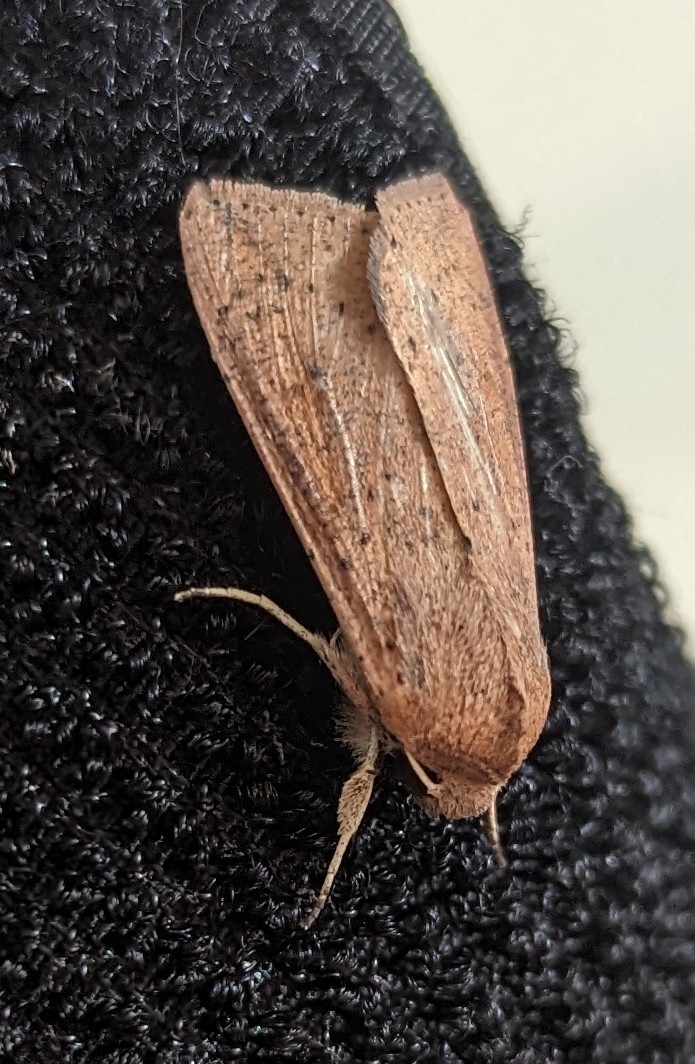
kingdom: Animalia
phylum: Arthropoda
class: Insecta
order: Lepidoptera
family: Noctuidae
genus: Mythimna
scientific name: Mythimna convecta
